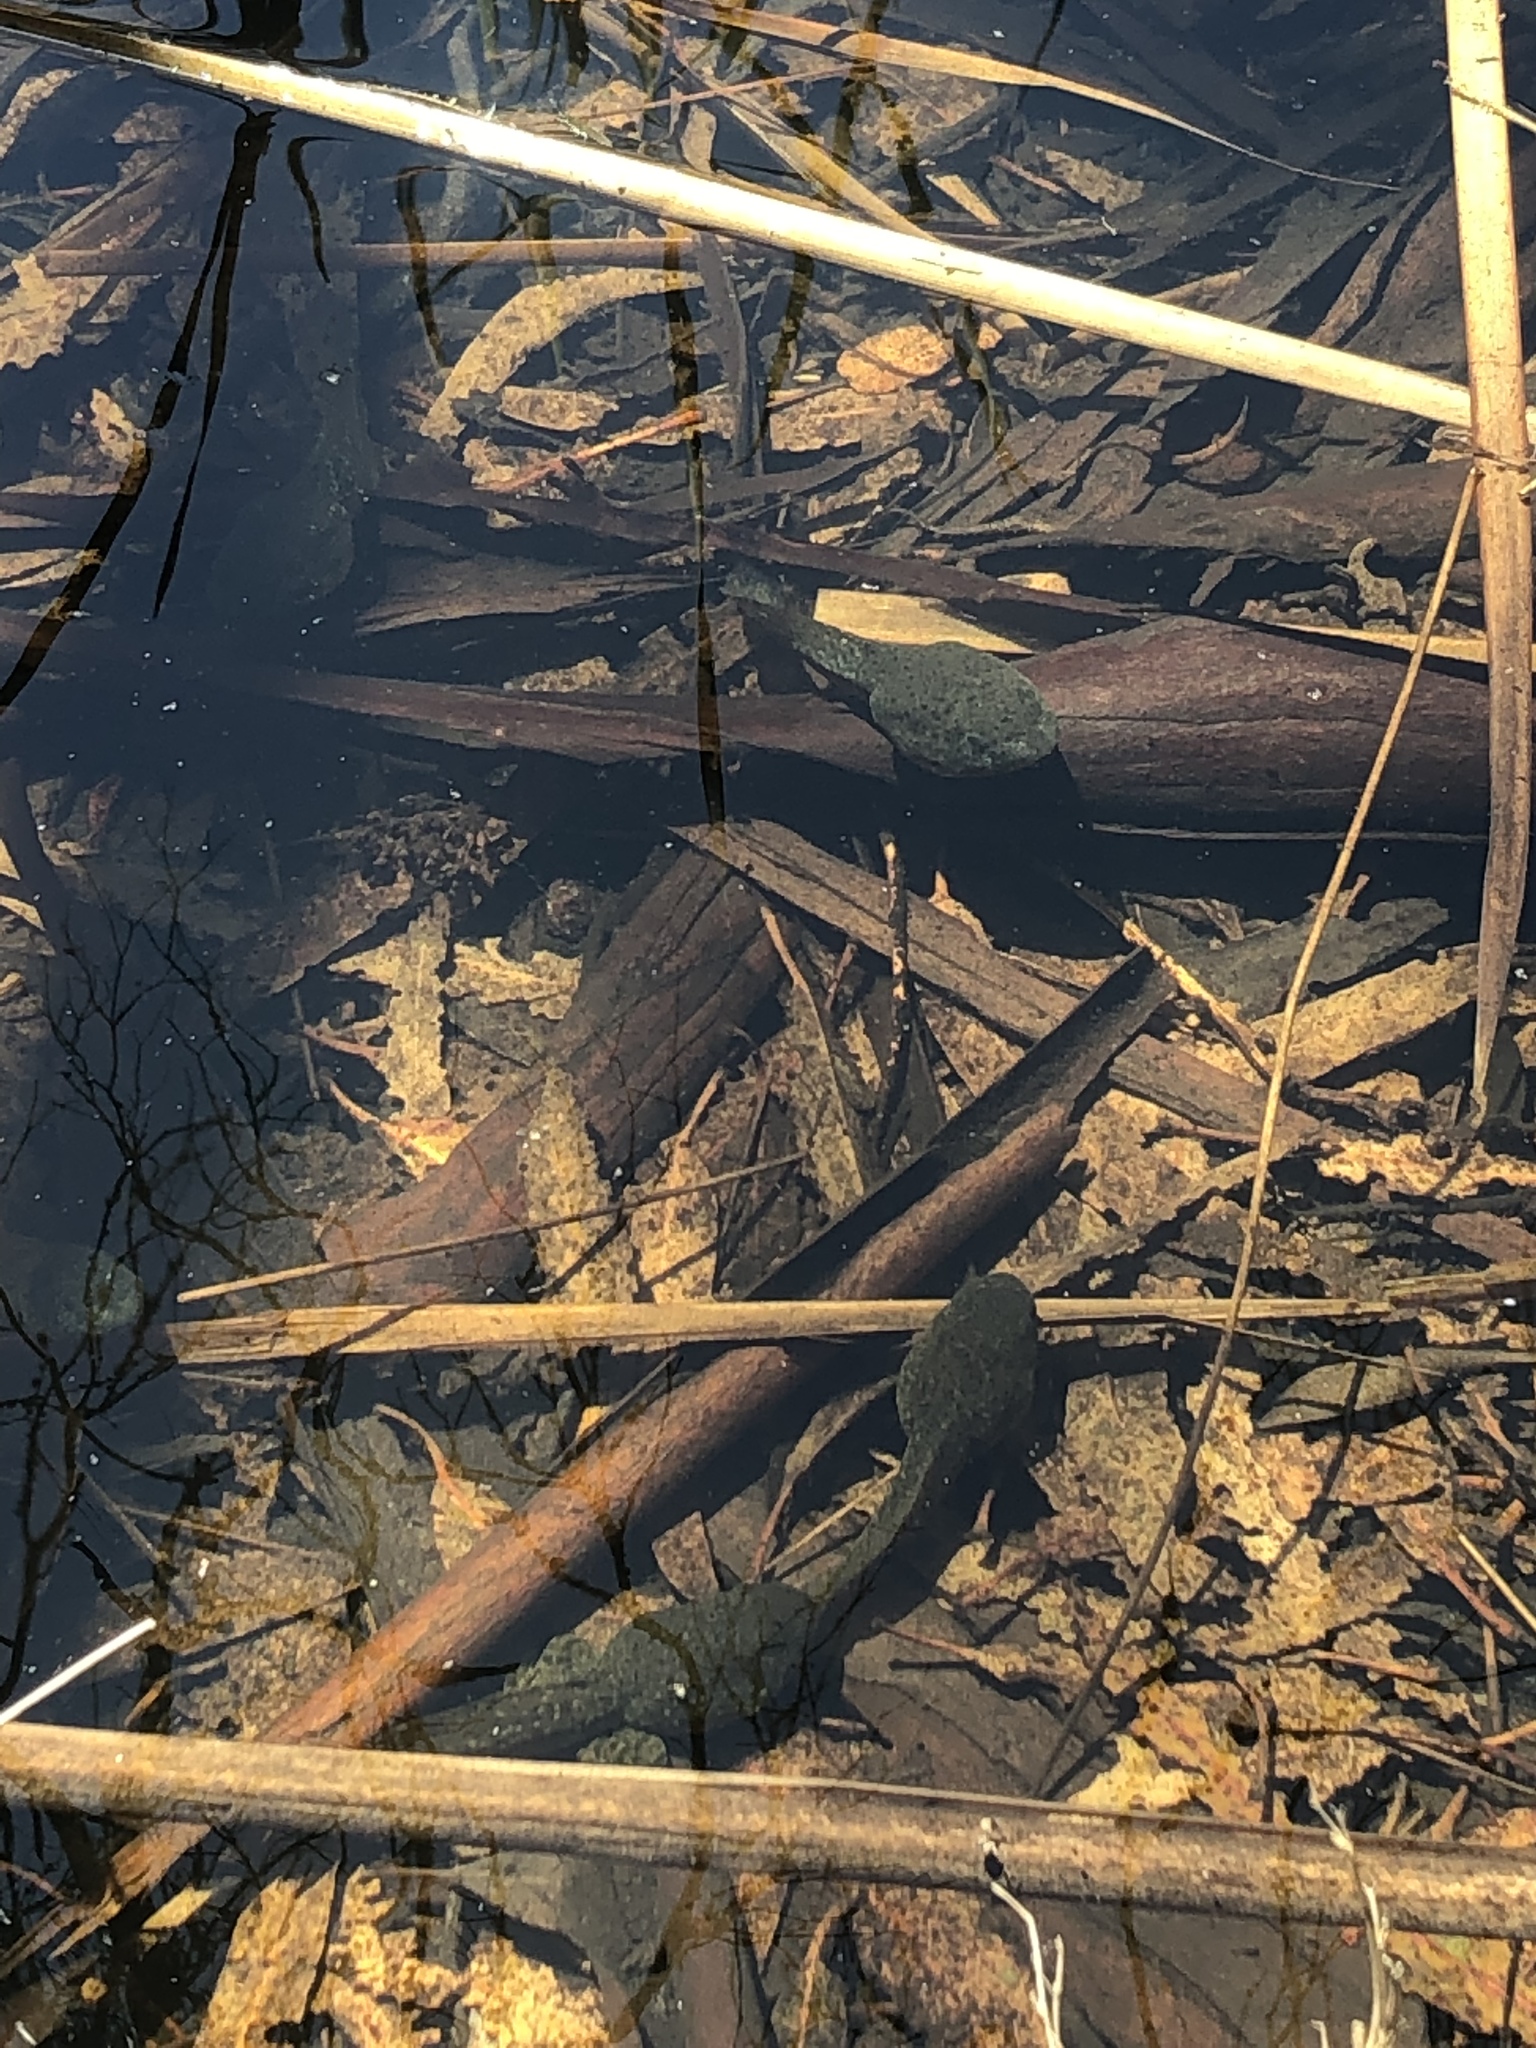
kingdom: Animalia
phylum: Chordata
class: Amphibia
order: Anura
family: Ranidae
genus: Lithobates
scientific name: Lithobates catesbeianus
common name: American bullfrog
